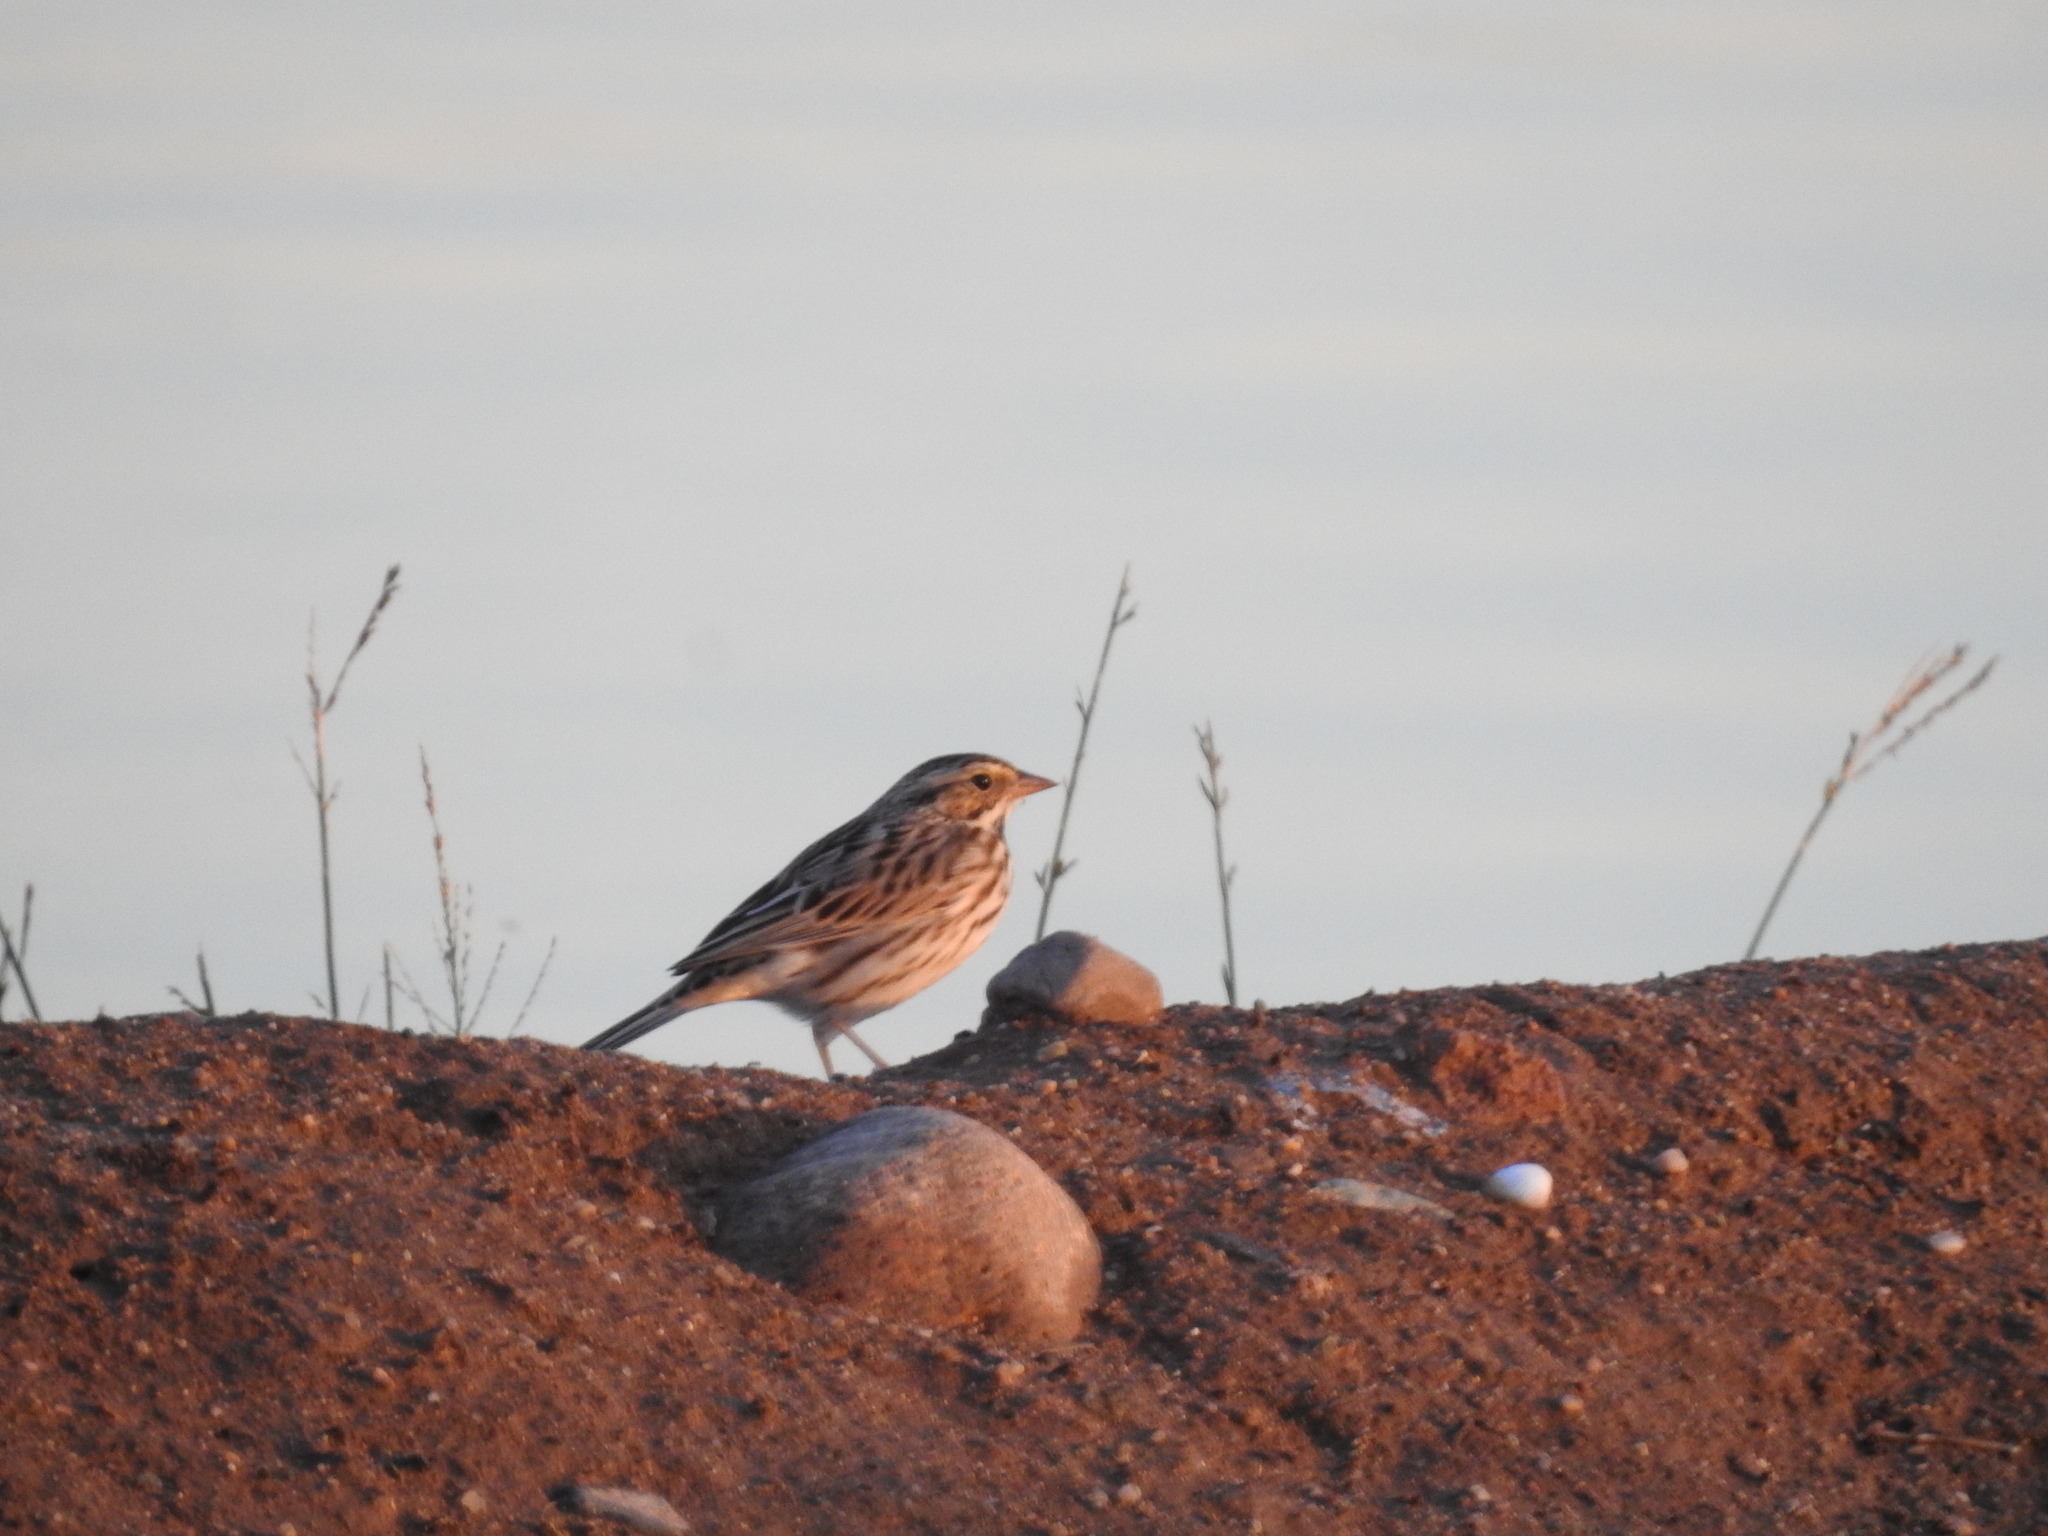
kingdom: Animalia
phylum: Chordata
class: Aves
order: Passeriformes
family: Passerellidae
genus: Passerculus
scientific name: Passerculus sandwichensis
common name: Savannah sparrow
